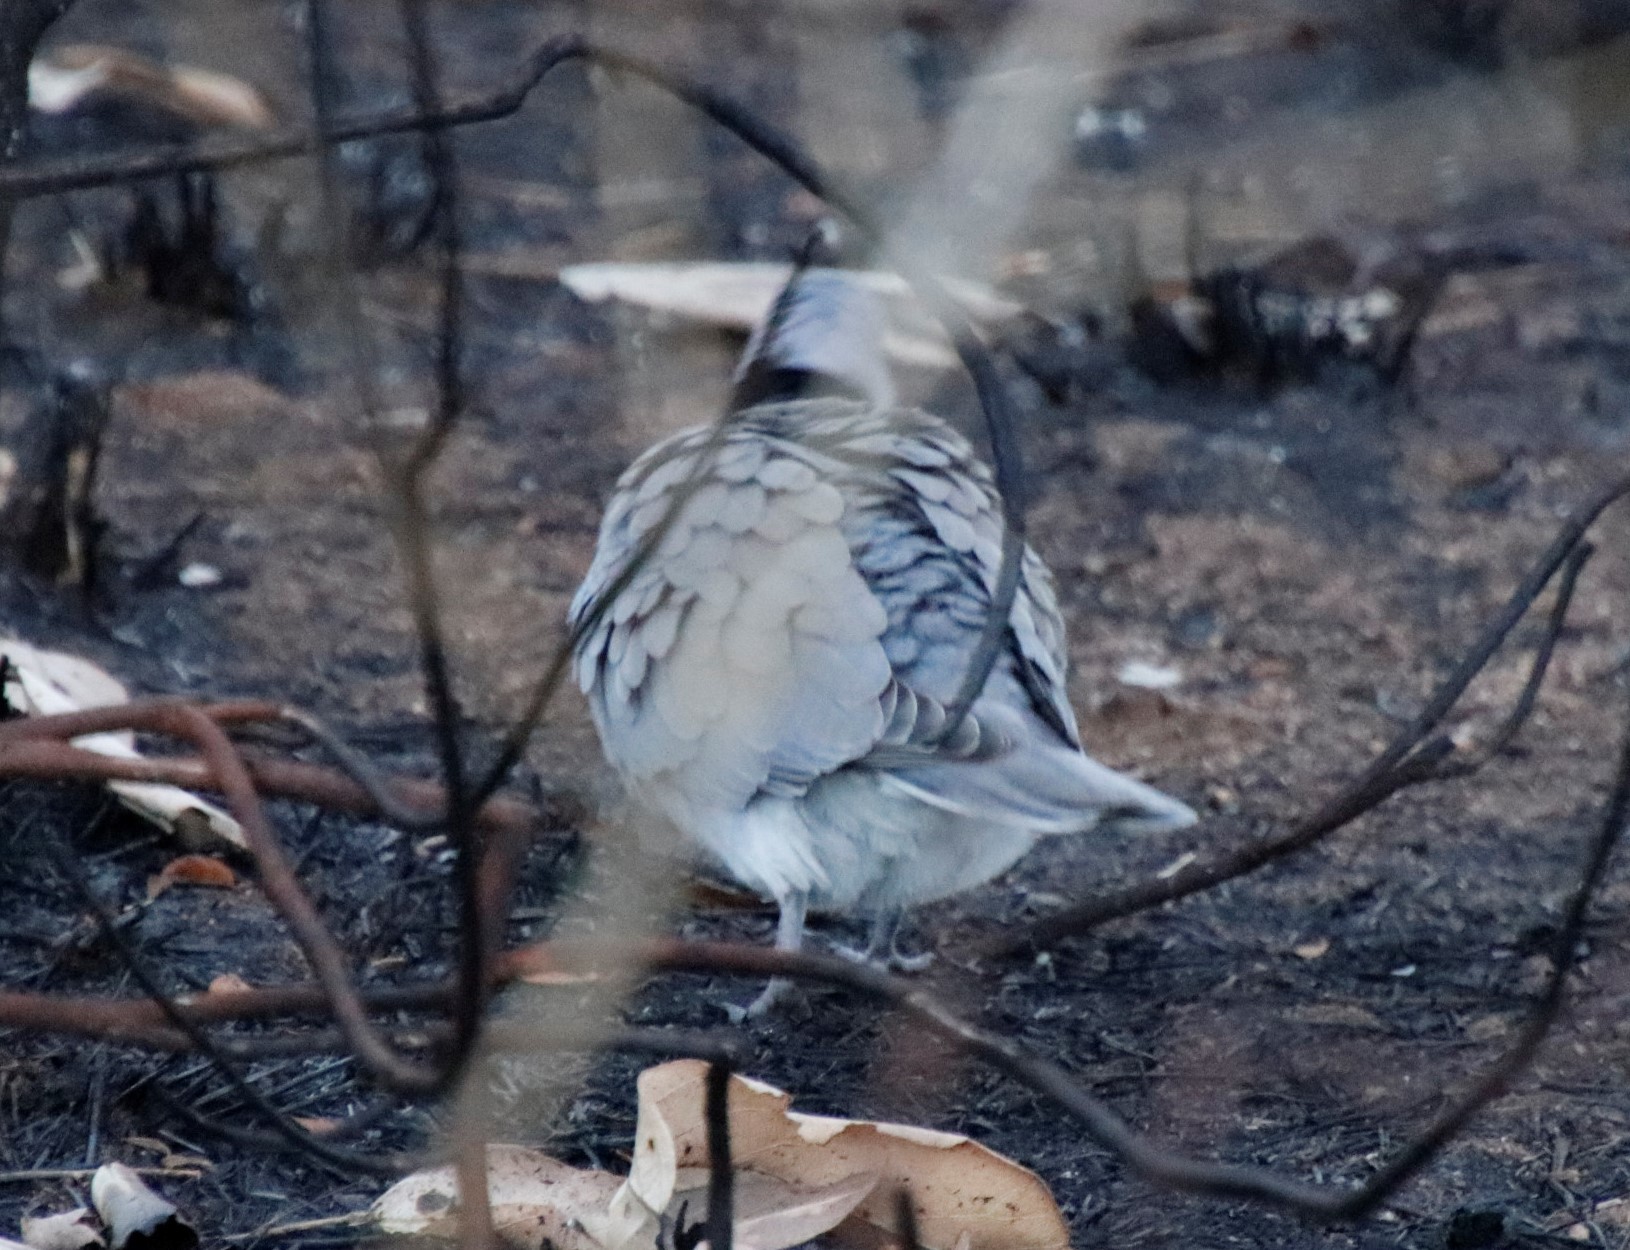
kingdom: Animalia
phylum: Chordata
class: Aves
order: Columbiformes
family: Columbidae
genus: Streptopelia
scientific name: Streptopelia capicola
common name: Ring-necked dove
